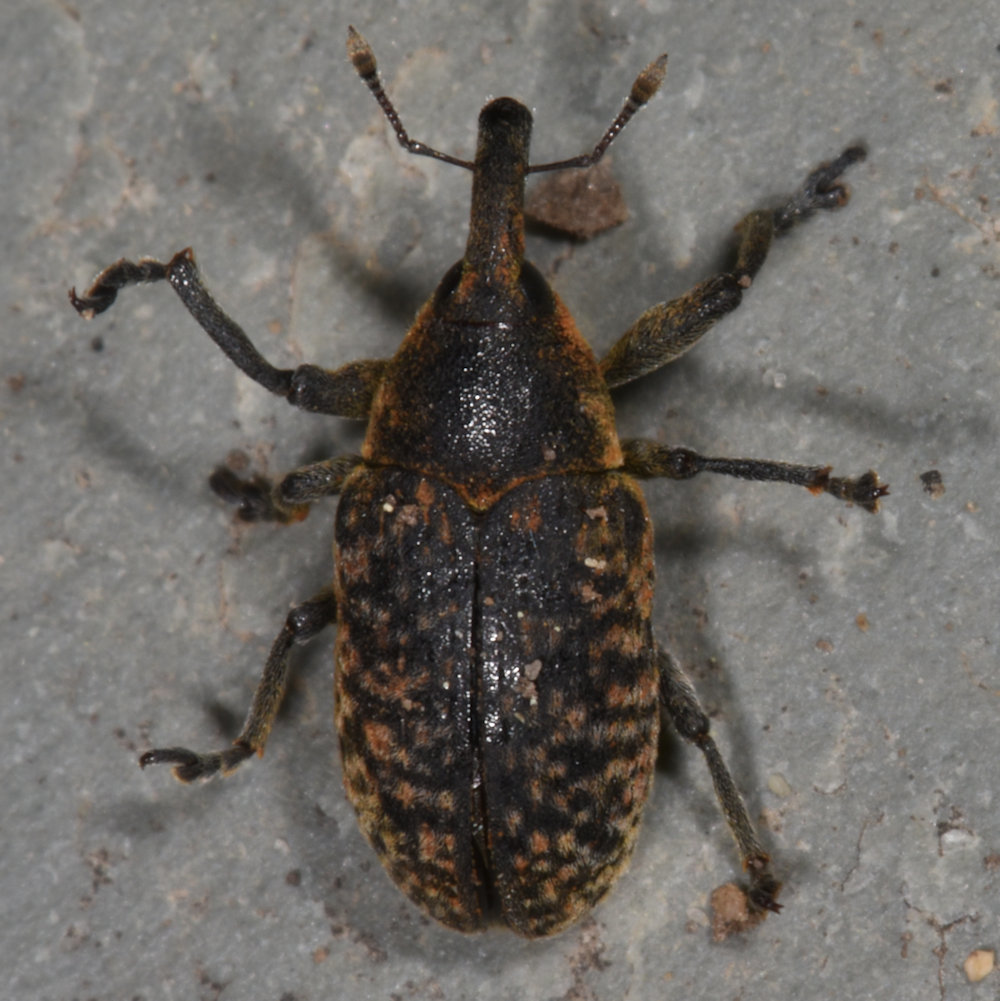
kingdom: Animalia
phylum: Arthropoda
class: Insecta
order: Coleoptera
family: Curculionidae
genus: Larinus
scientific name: Larinus carlinae
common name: Weevil
